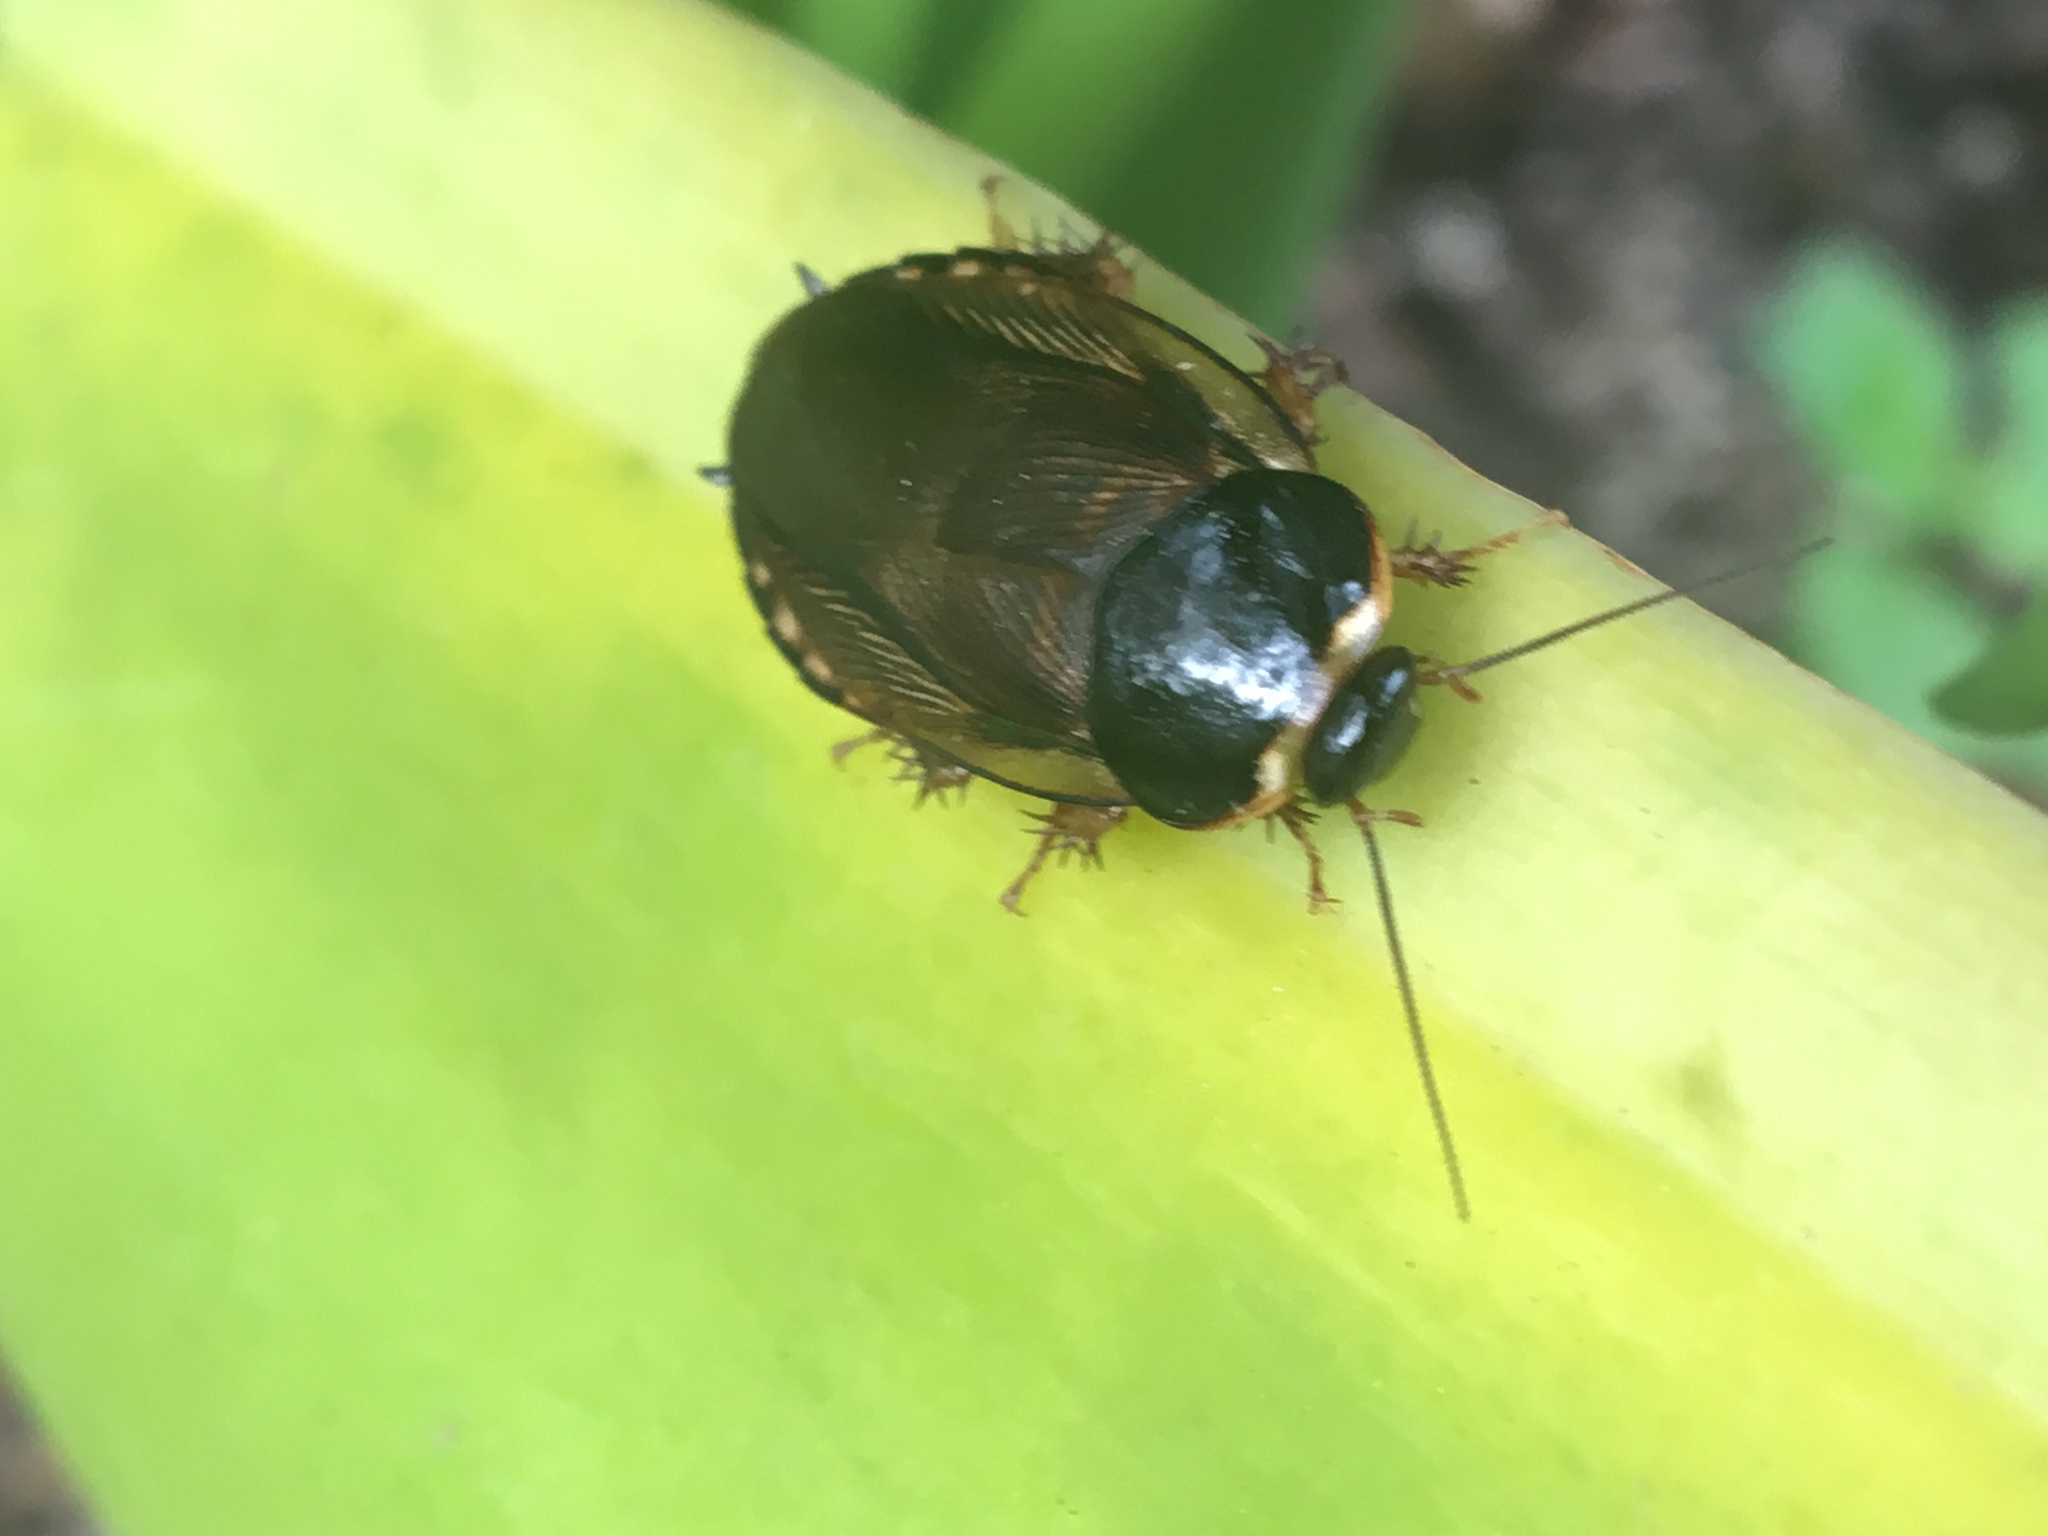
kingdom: Animalia
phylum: Arthropoda
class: Insecta
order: Blattodea
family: Blaberidae
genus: Pycnoscelus
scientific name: Pycnoscelus surinamensis
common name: Surinam cockroach
